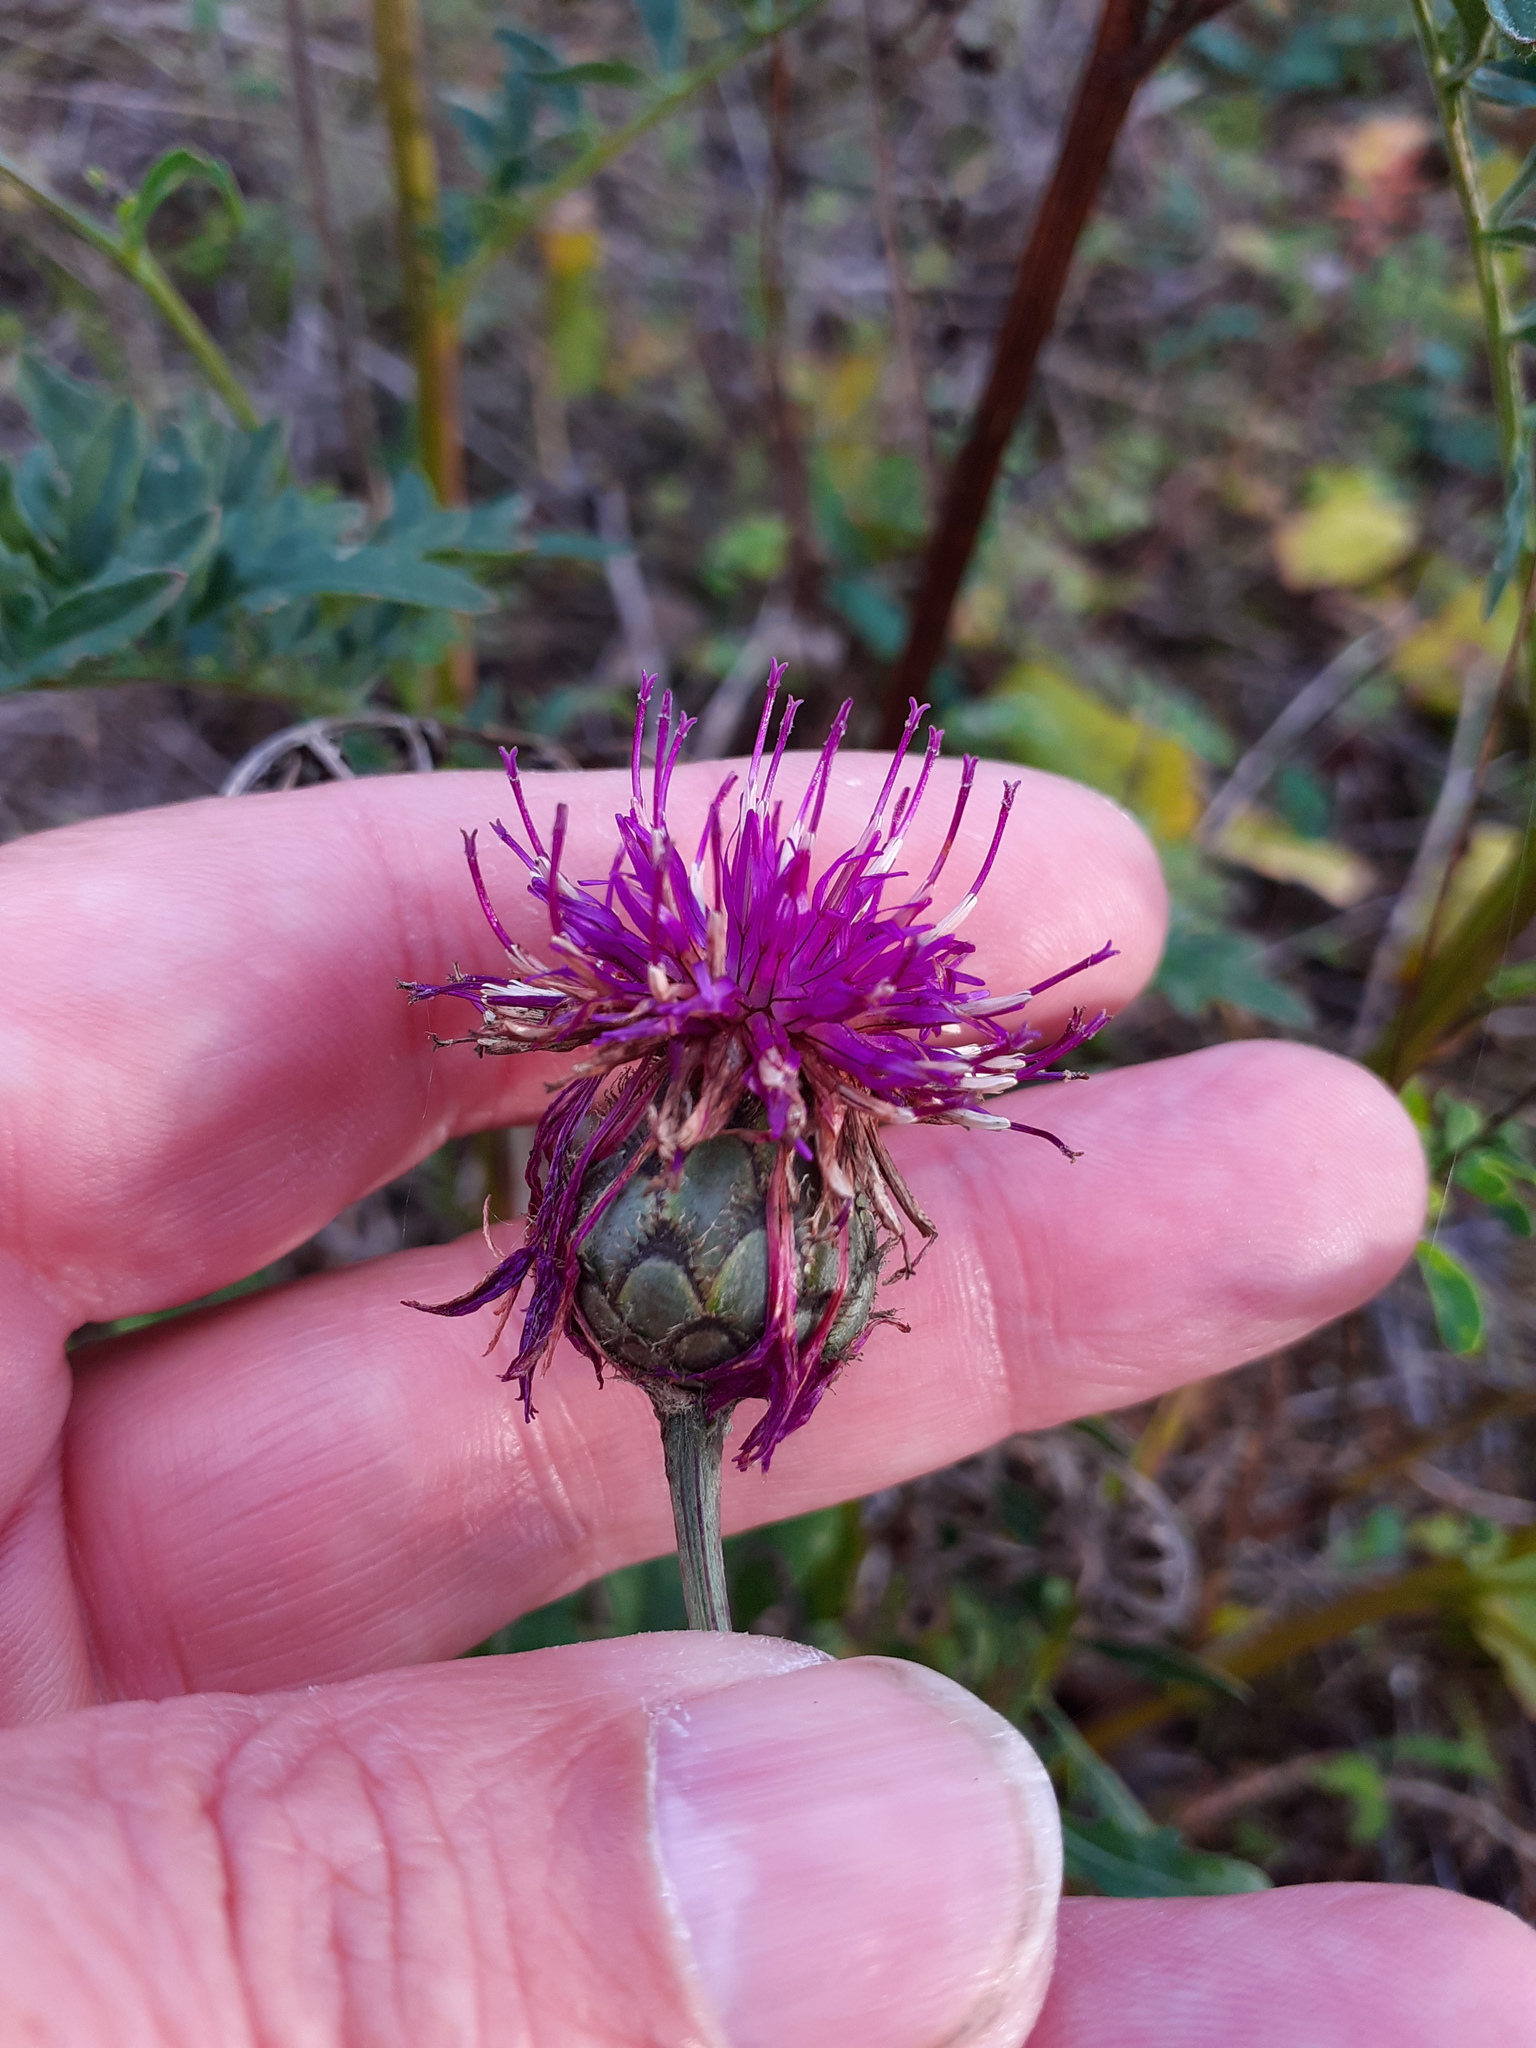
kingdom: Plantae
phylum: Tracheophyta
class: Magnoliopsida
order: Asterales
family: Asteraceae
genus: Centaurea
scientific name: Centaurea scabiosa
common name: Greater knapweed
